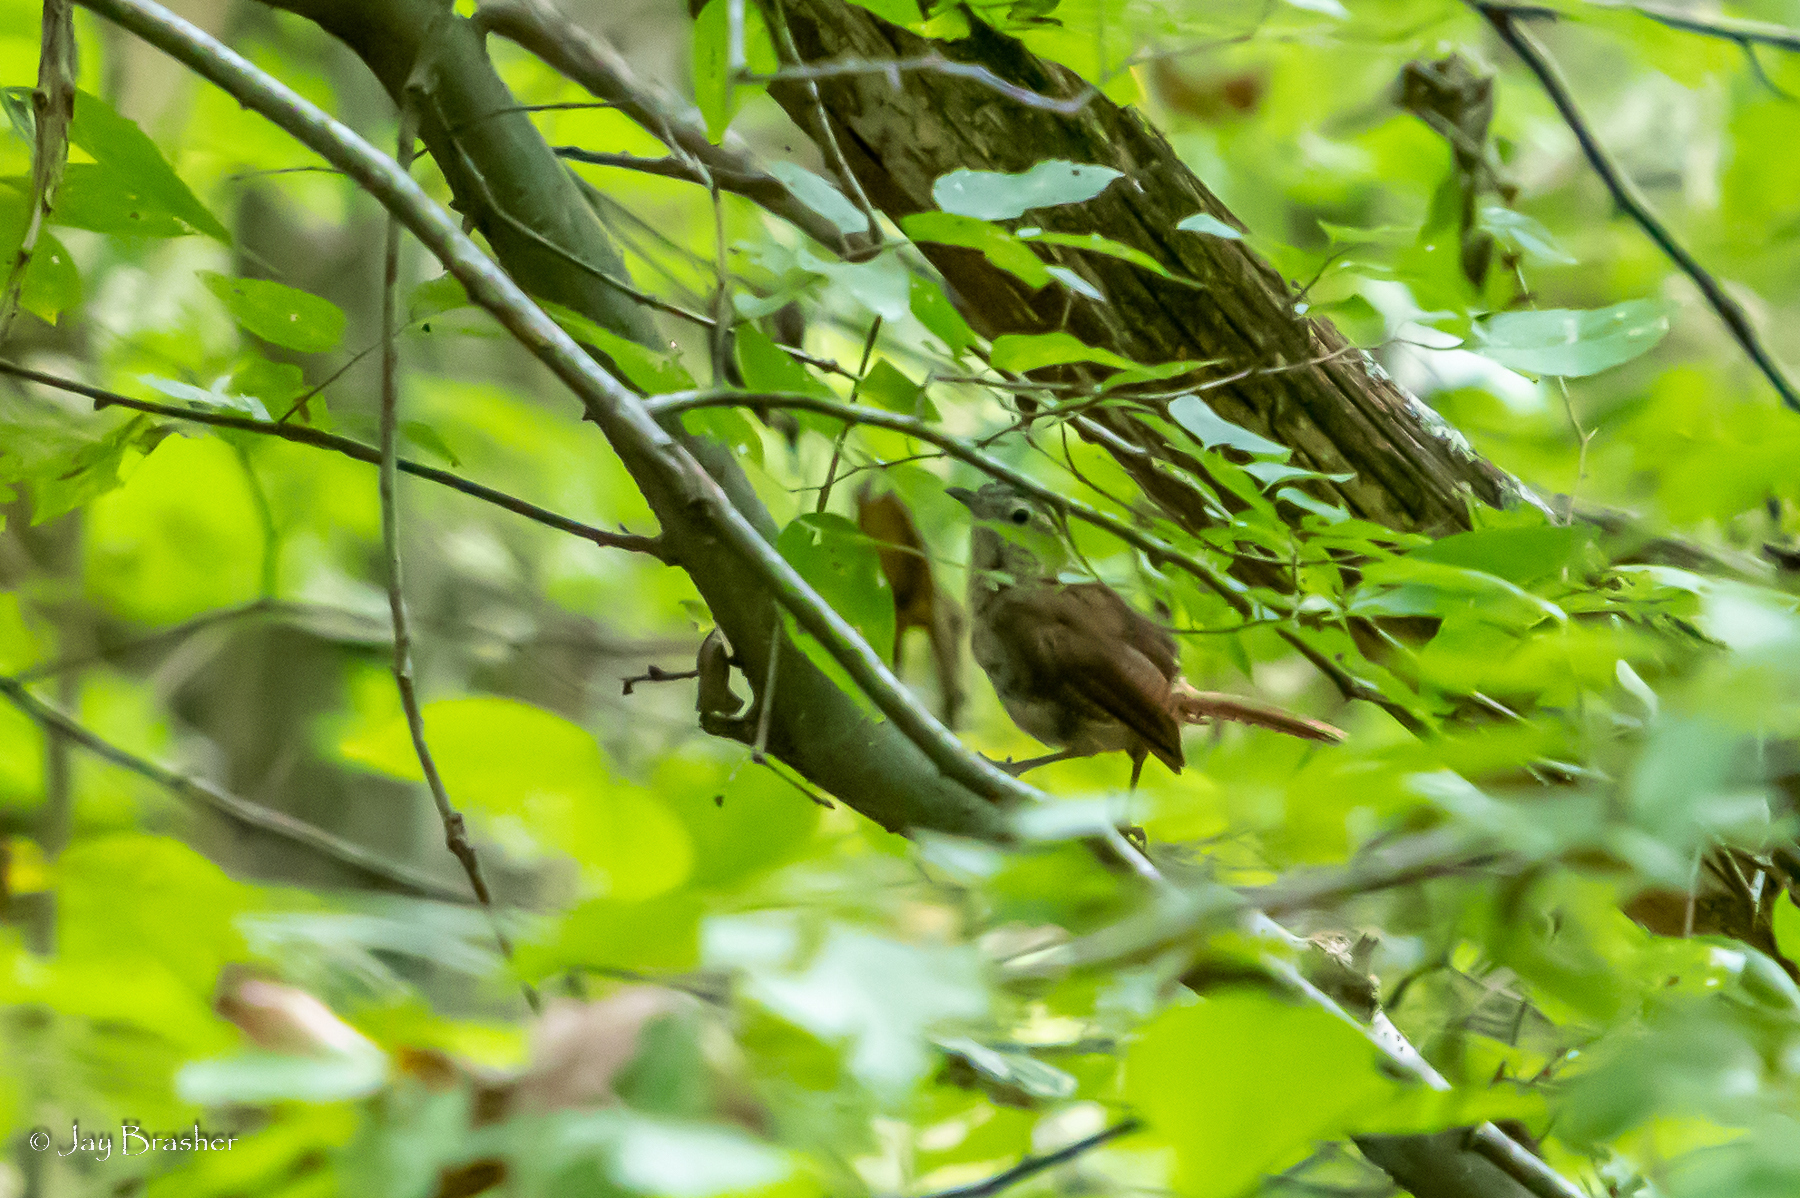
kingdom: Animalia
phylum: Chordata
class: Aves
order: Passeriformes
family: Troglodytidae
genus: Thryothorus
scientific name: Thryothorus ludovicianus
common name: Carolina wren
